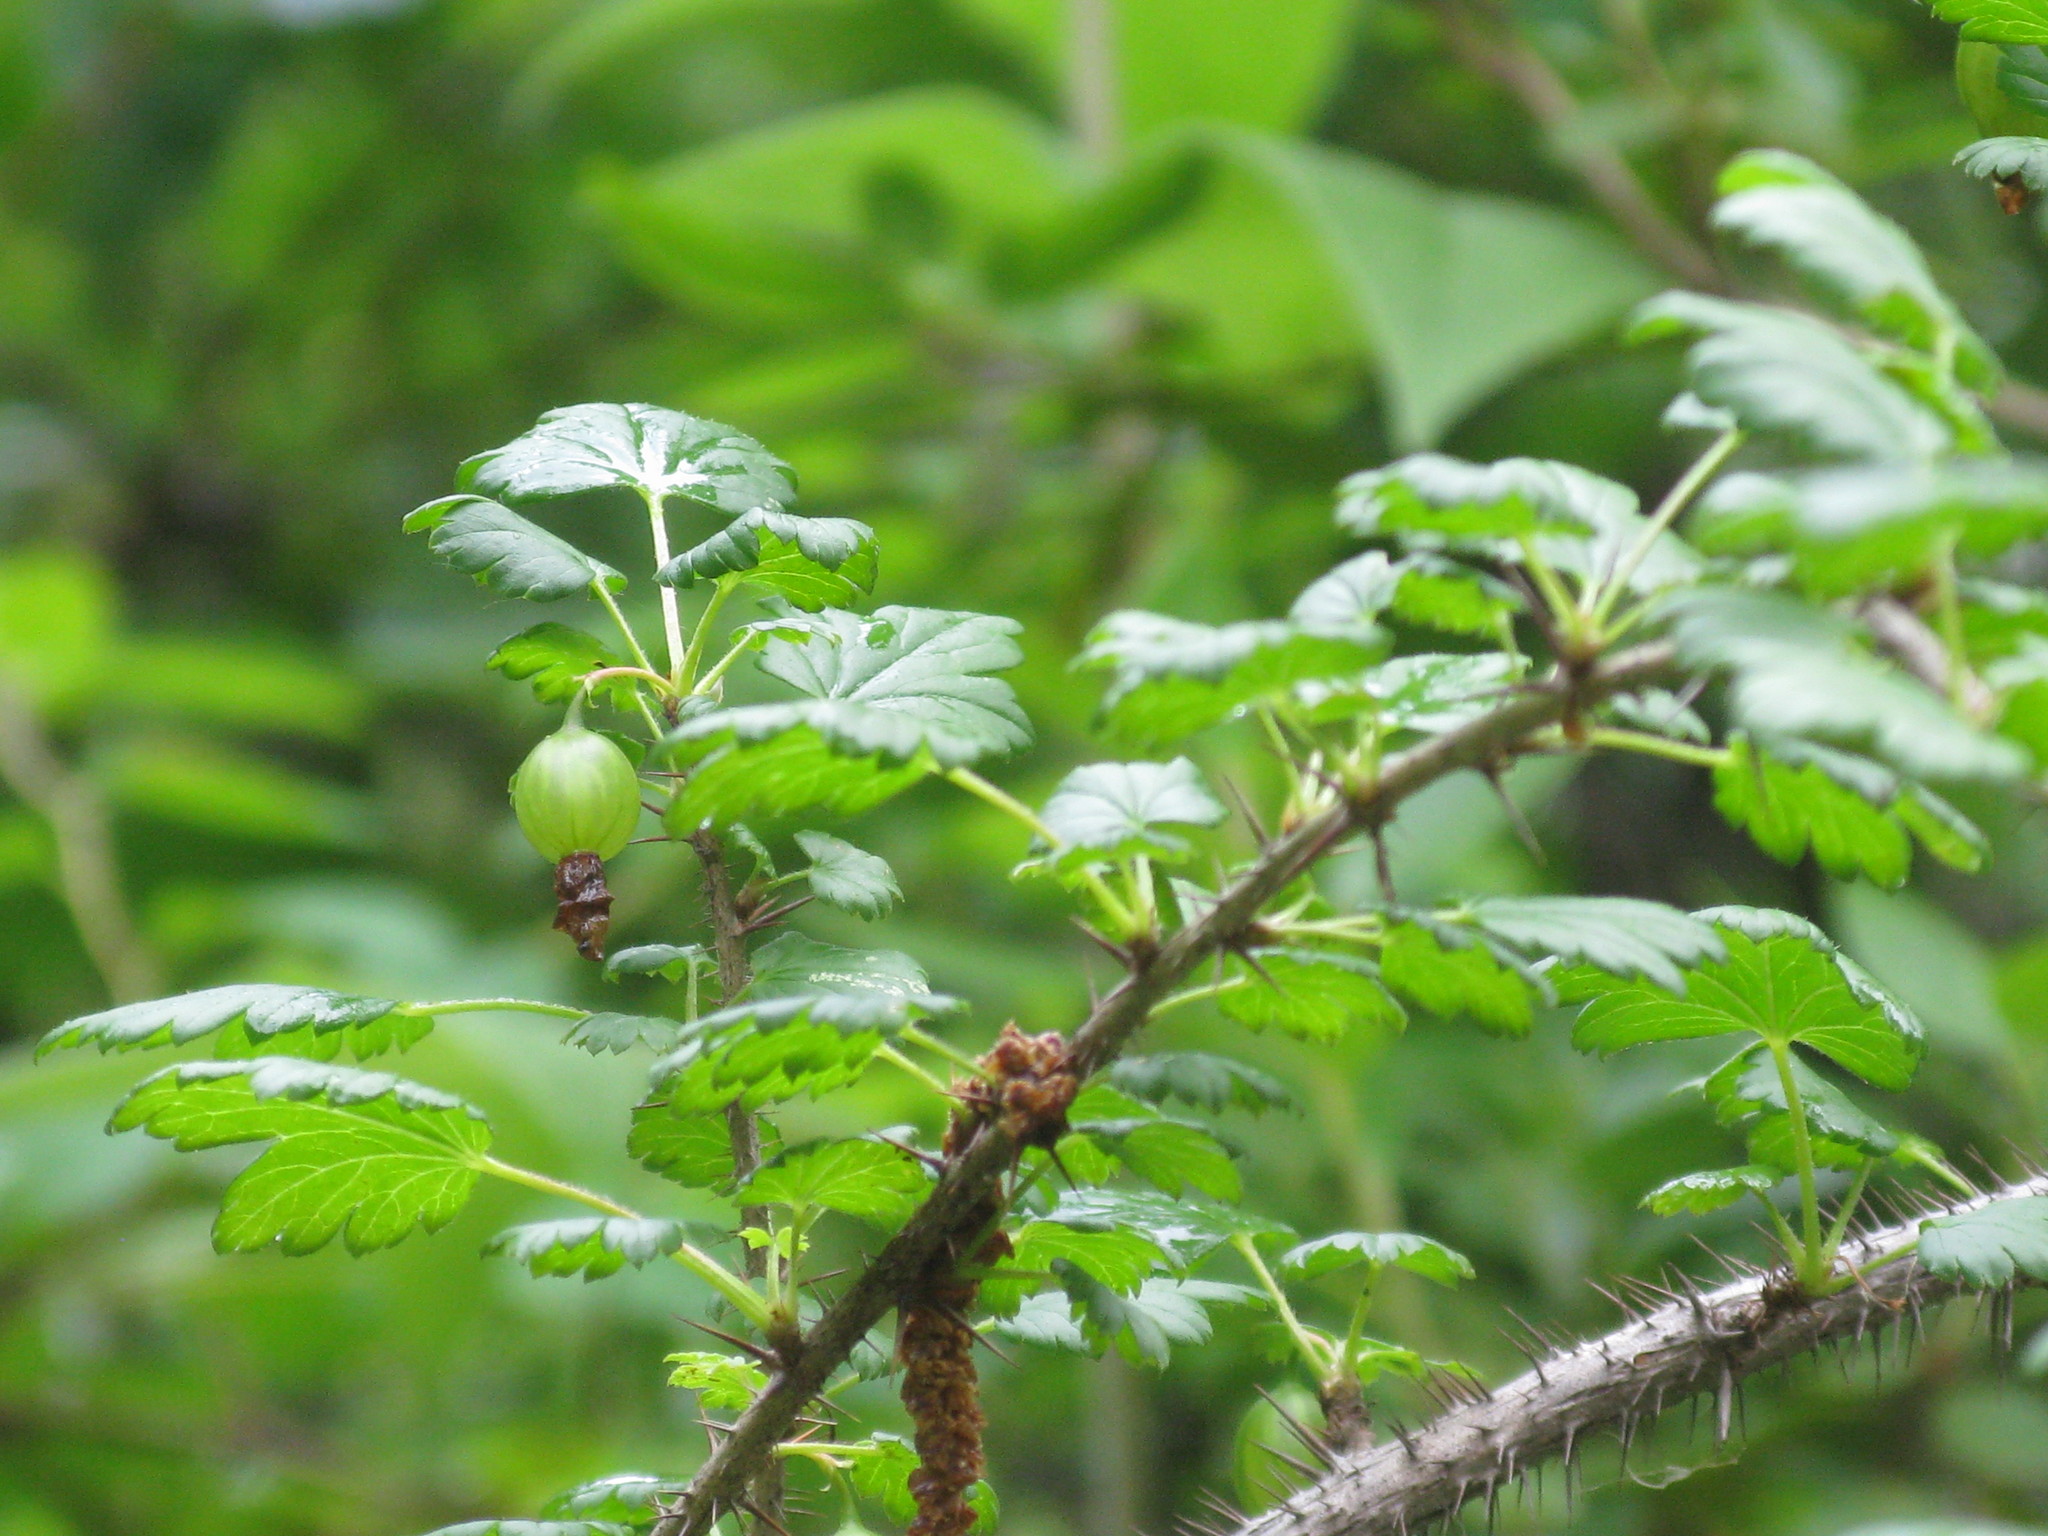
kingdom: Plantae
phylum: Tracheophyta
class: Magnoliopsida
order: Saxifragales
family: Grossulariaceae
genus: Ribes
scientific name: Ribes uva-crispa
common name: Gooseberry
